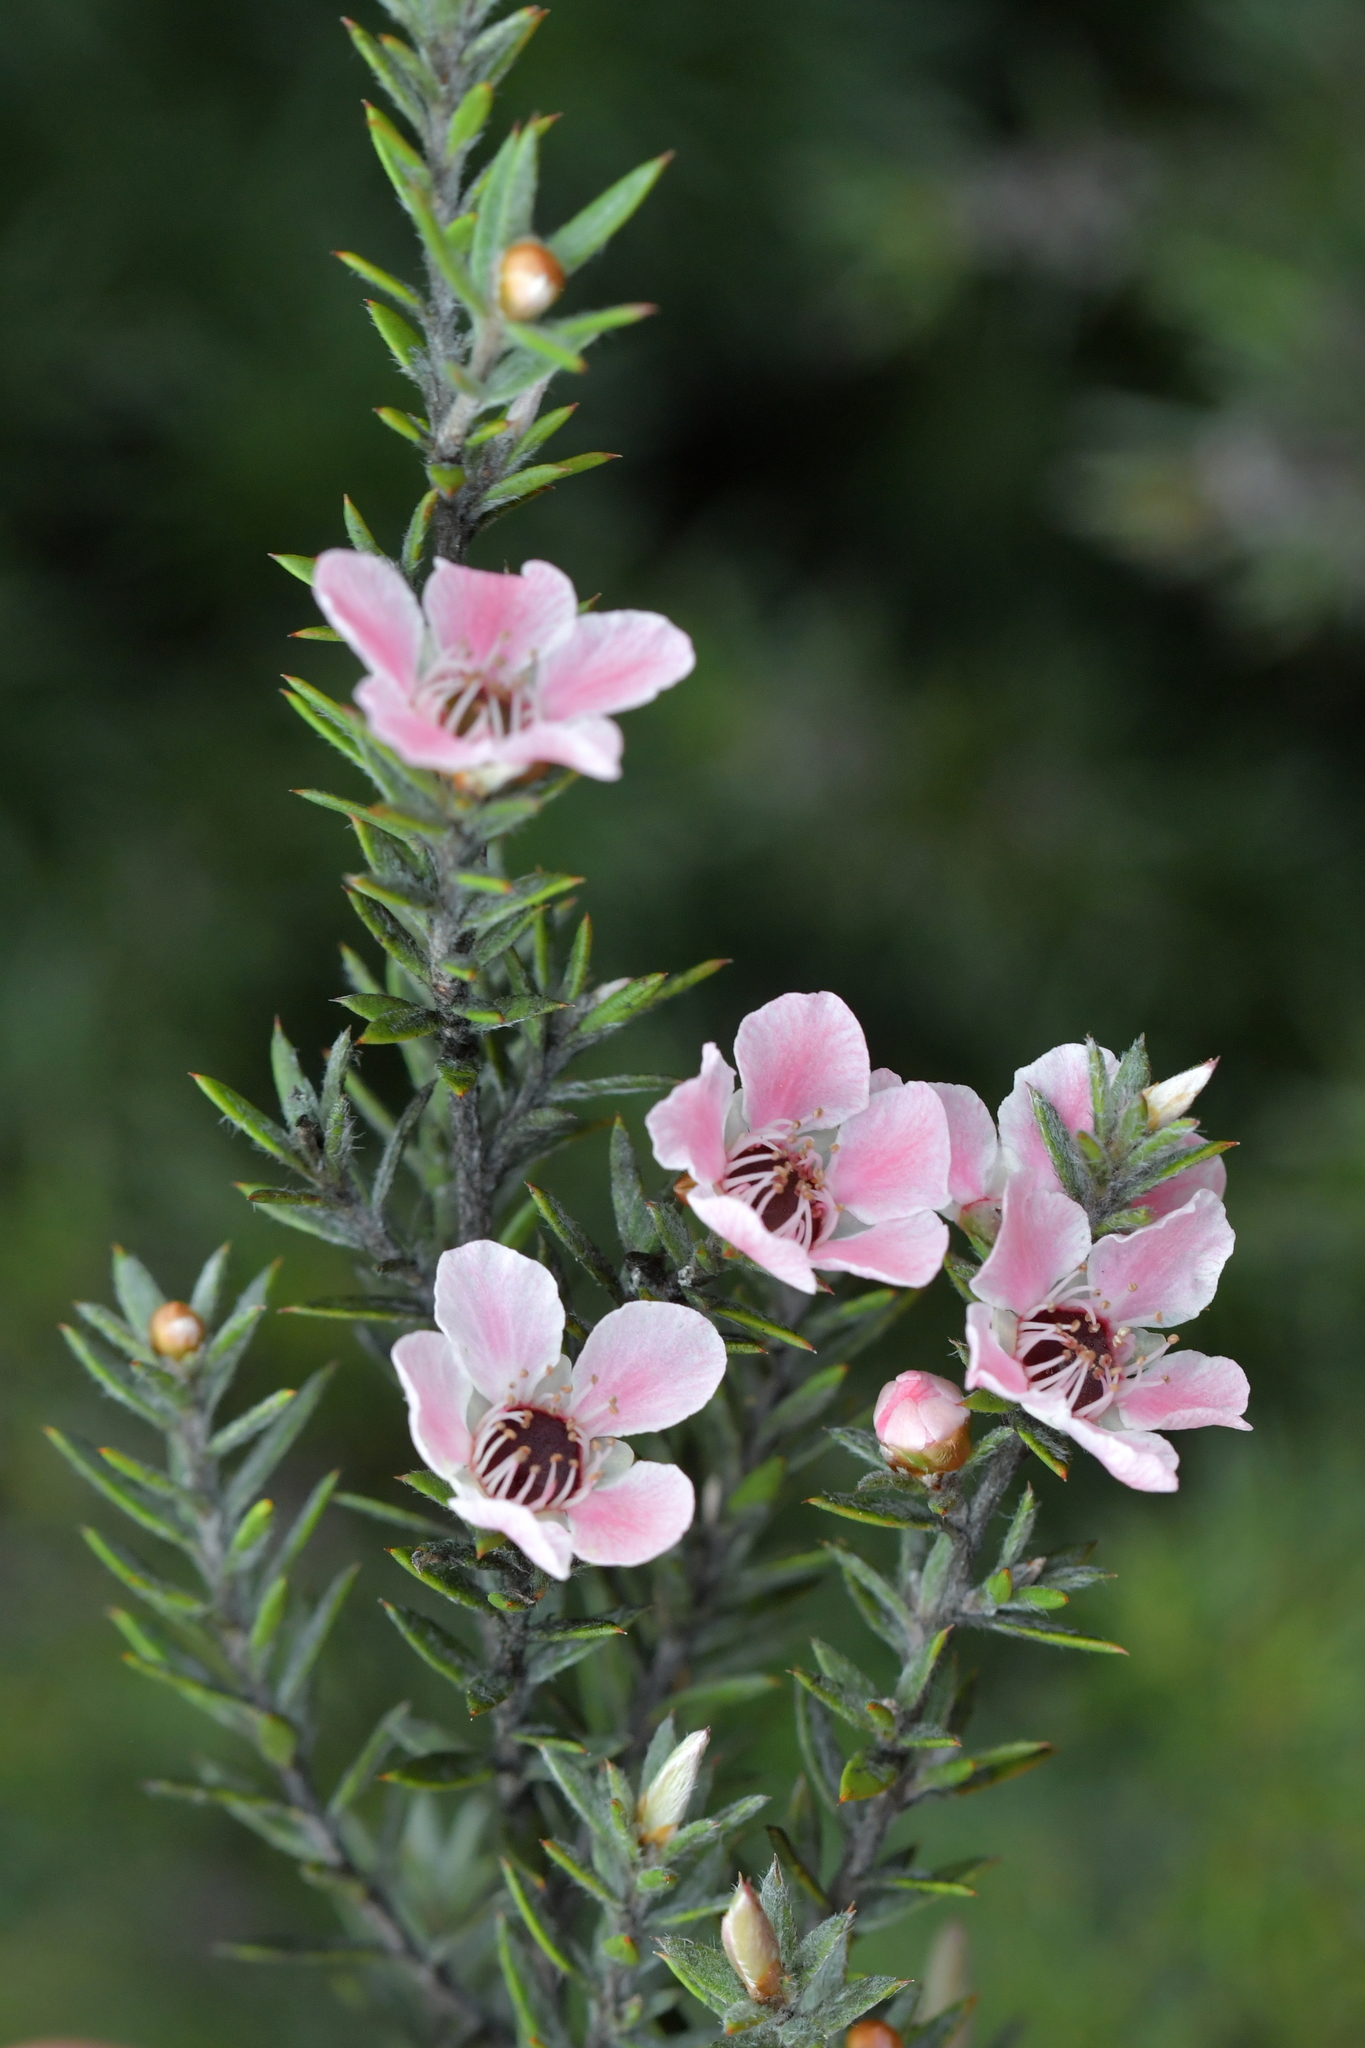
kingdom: Plantae
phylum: Tracheophyta
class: Magnoliopsida
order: Myrtales
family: Myrtaceae
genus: Kunzea
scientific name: Kunzea linearis
